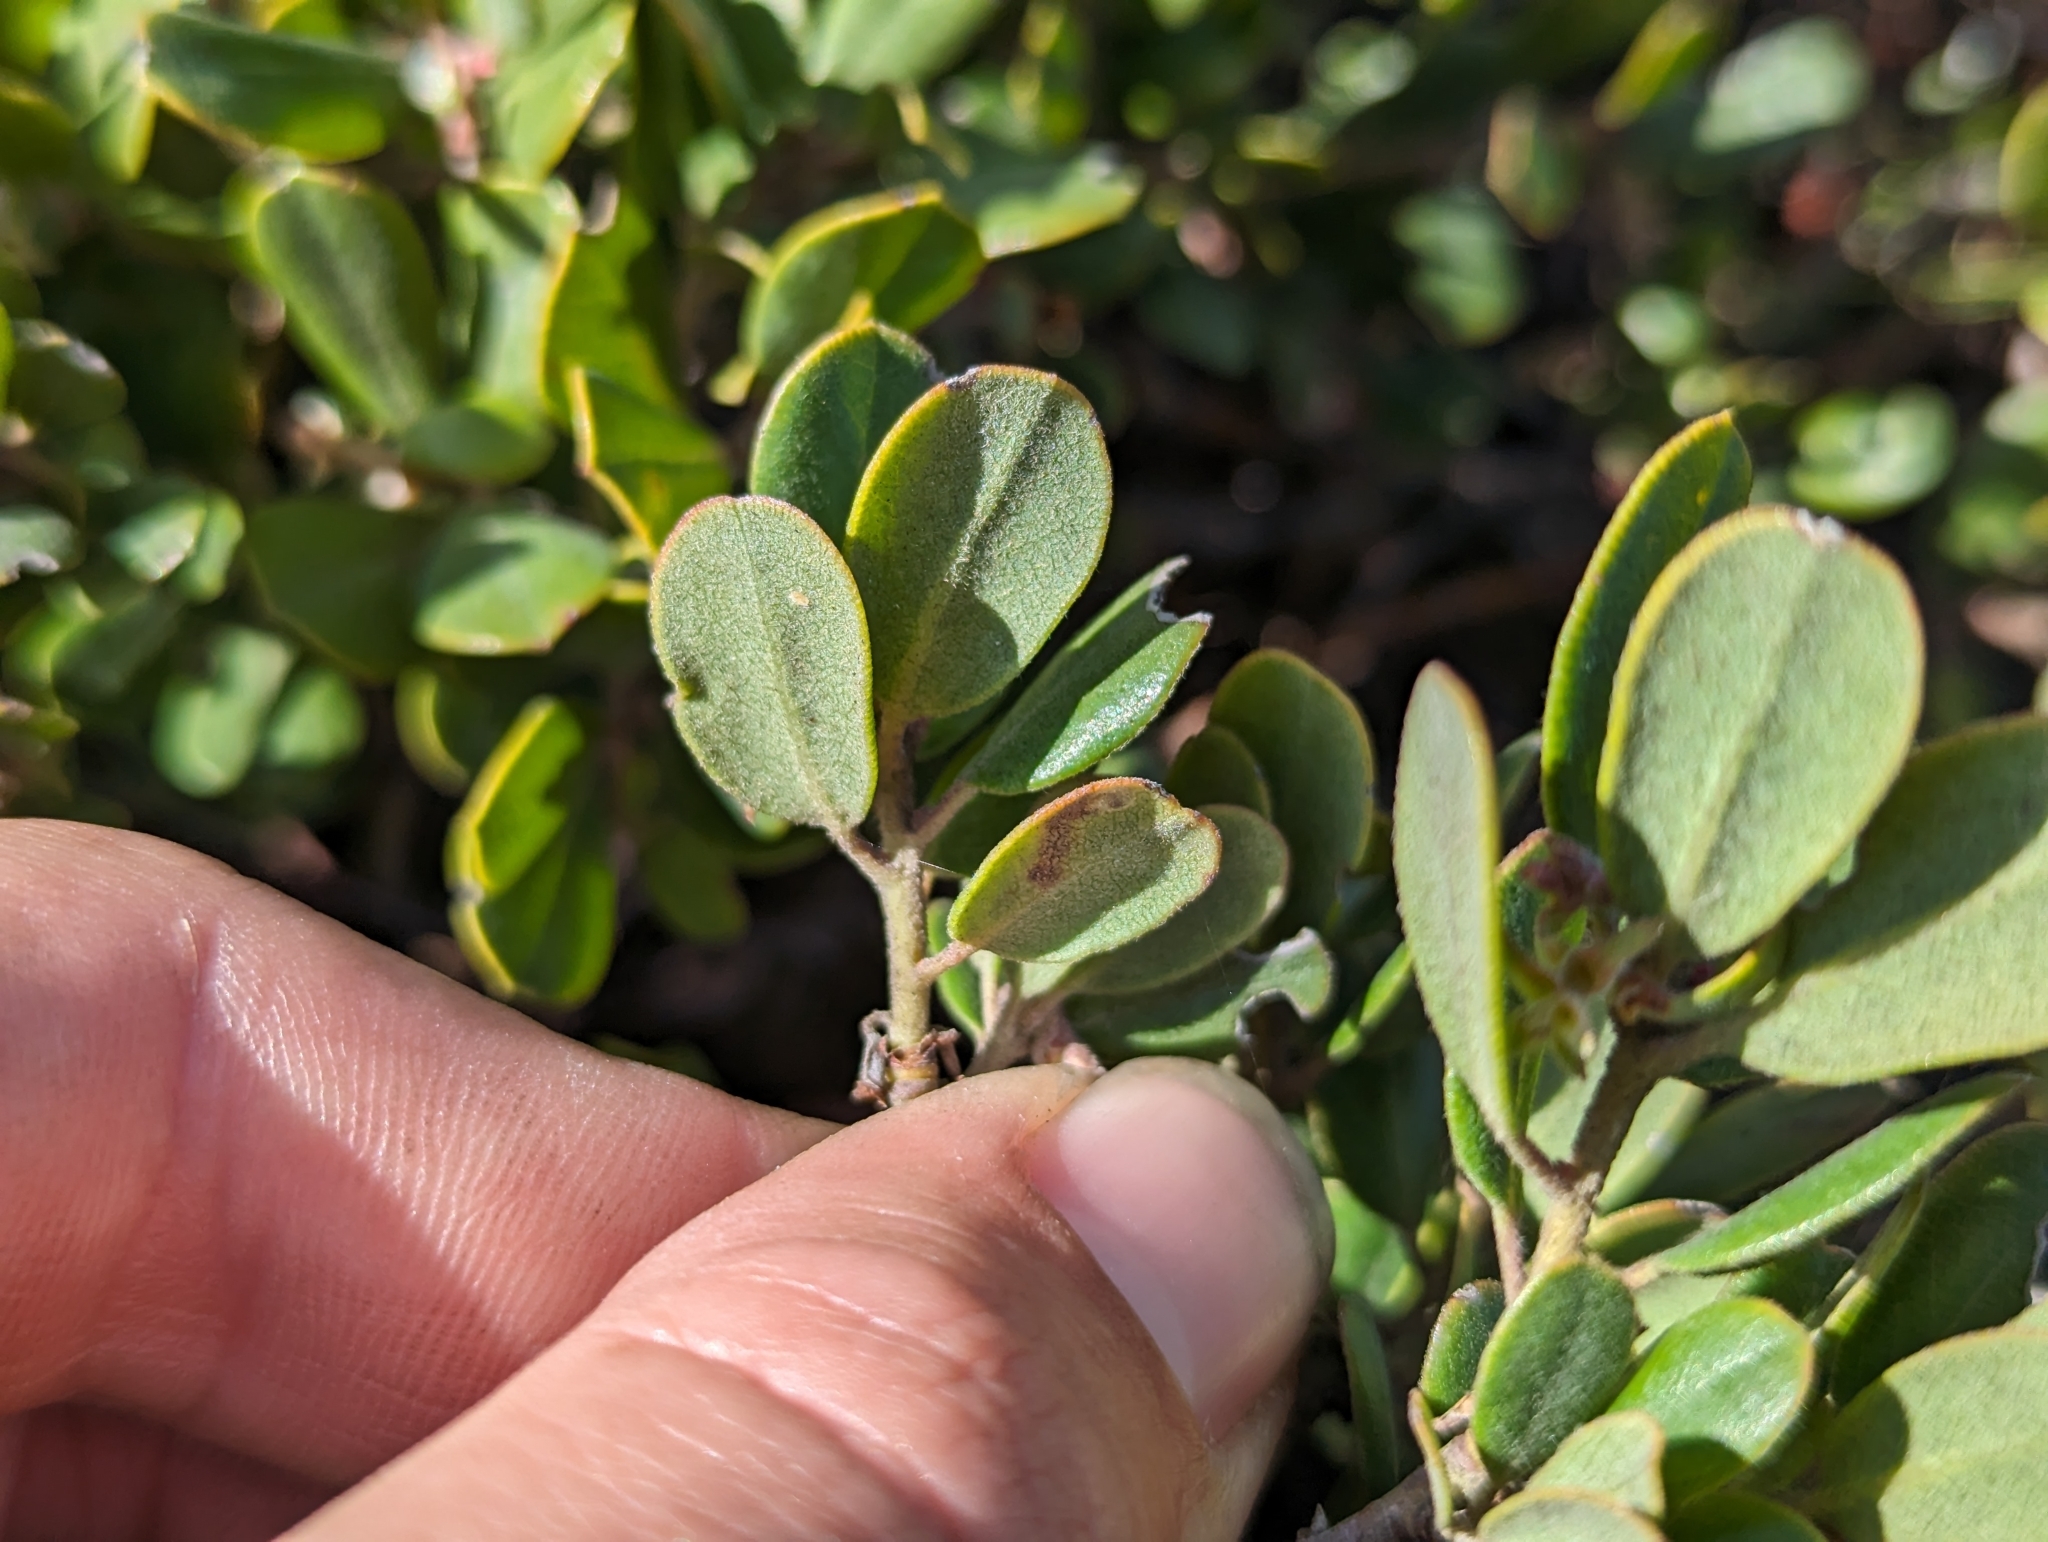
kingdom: Plantae
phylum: Tracheophyta
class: Magnoliopsida
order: Ericales
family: Ericaceae
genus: Arctostaphylos
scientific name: Arctostaphylos pumila
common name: Sandmat manzanita
